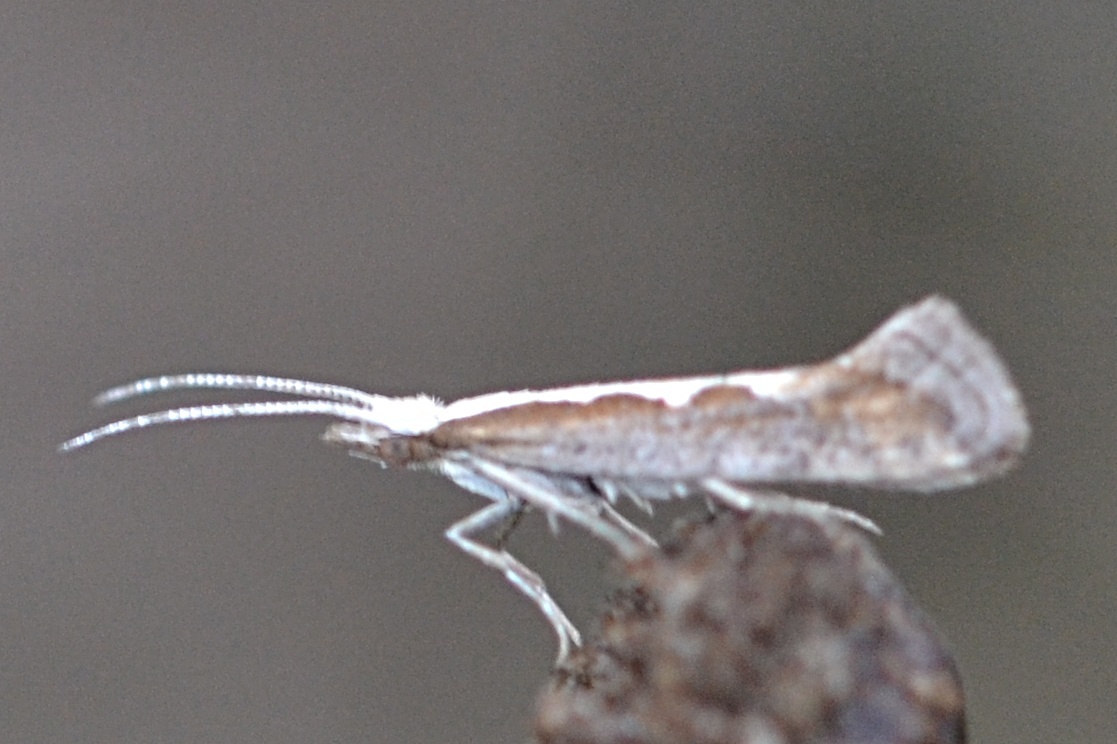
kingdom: Animalia
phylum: Arthropoda
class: Insecta
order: Lepidoptera
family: Plutellidae
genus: Plutella
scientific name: Plutella xylostella
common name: Diamond-back moth
